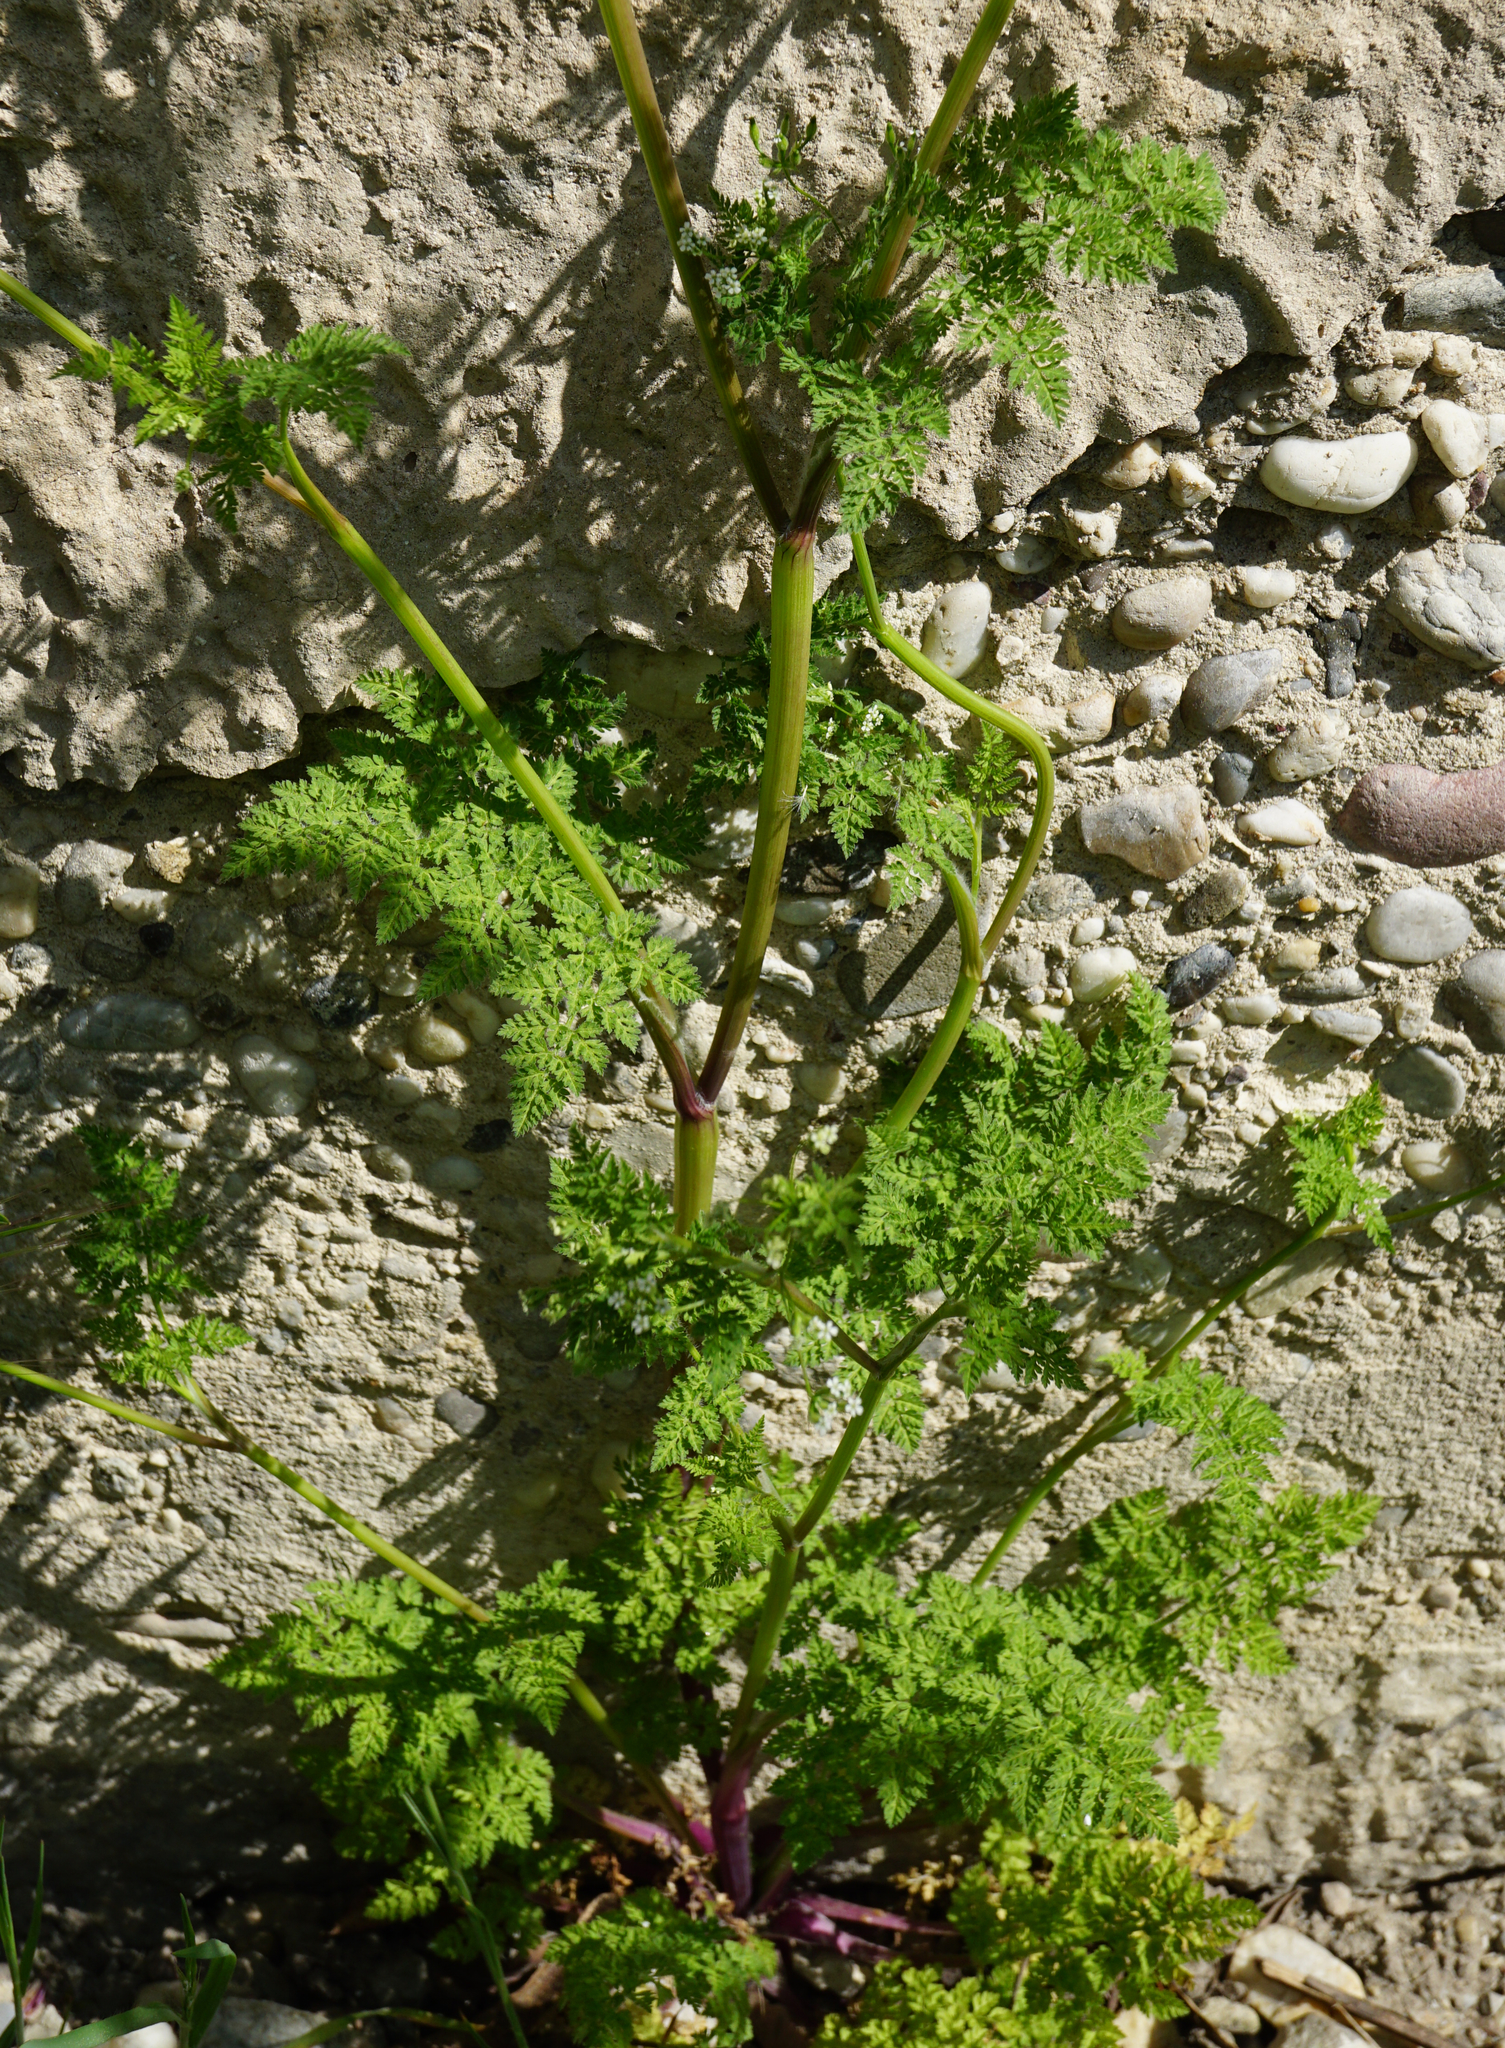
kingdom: Plantae
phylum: Tracheophyta
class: Magnoliopsida
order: Apiales
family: Apiaceae
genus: Anthriscus
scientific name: Anthriscus caucalis
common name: Bur chervil
